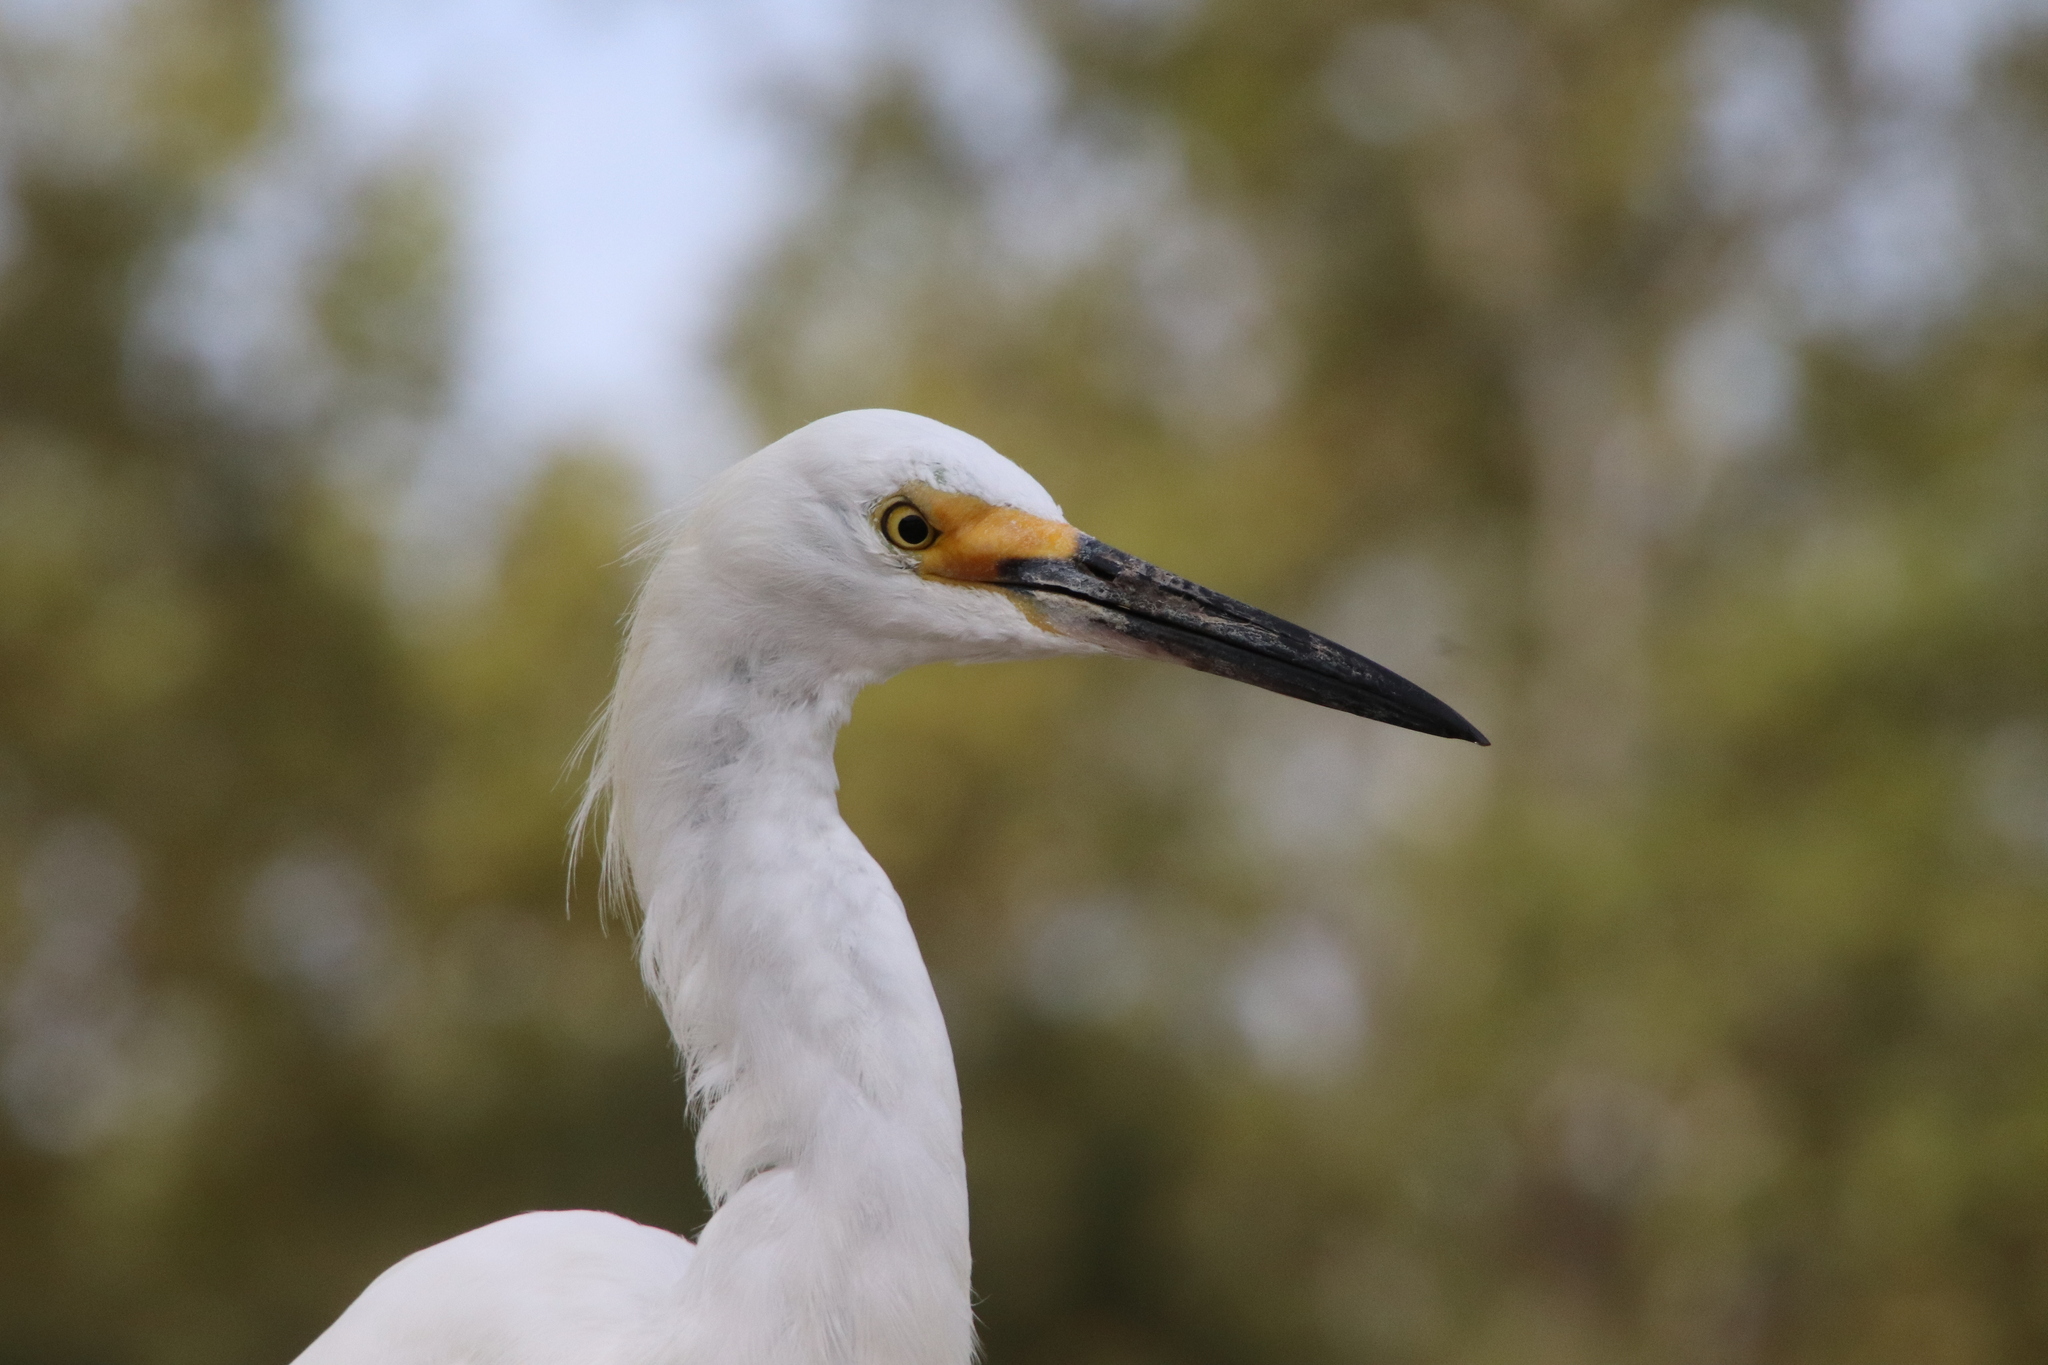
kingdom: Animalia
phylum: Chordata
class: Aves
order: Pelecaniformes
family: Ardeidae
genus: Egretta
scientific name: Egretta thula
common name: Snowy egret
